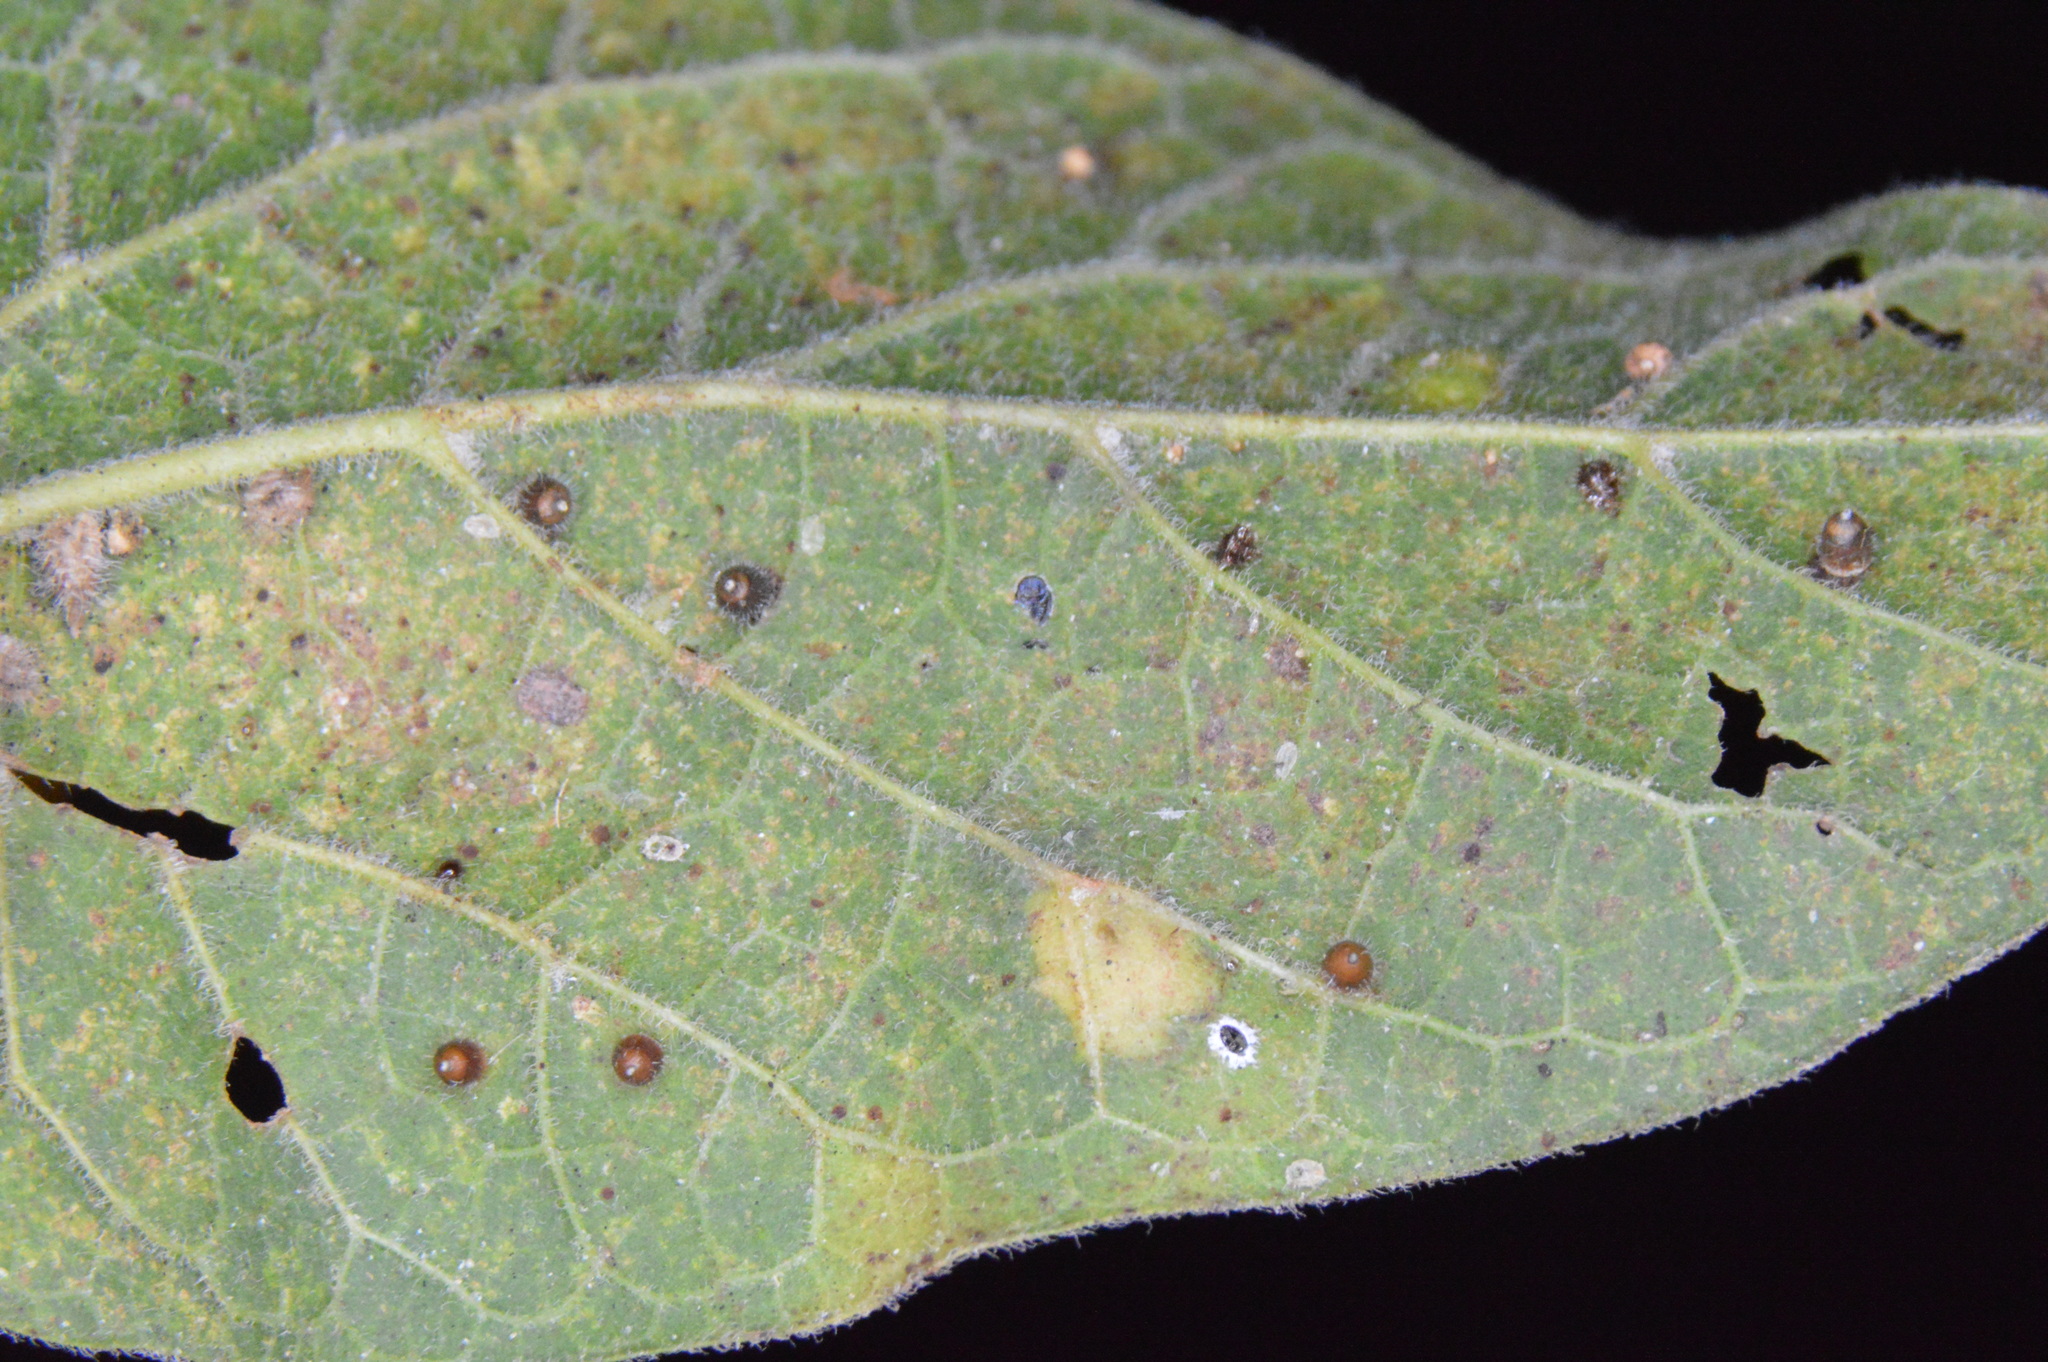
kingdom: Animalia
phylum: Arthropoda
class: Insecta
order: Diptera
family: Cecidomyiidae
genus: Celticecis
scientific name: Celticecis cupiformis
